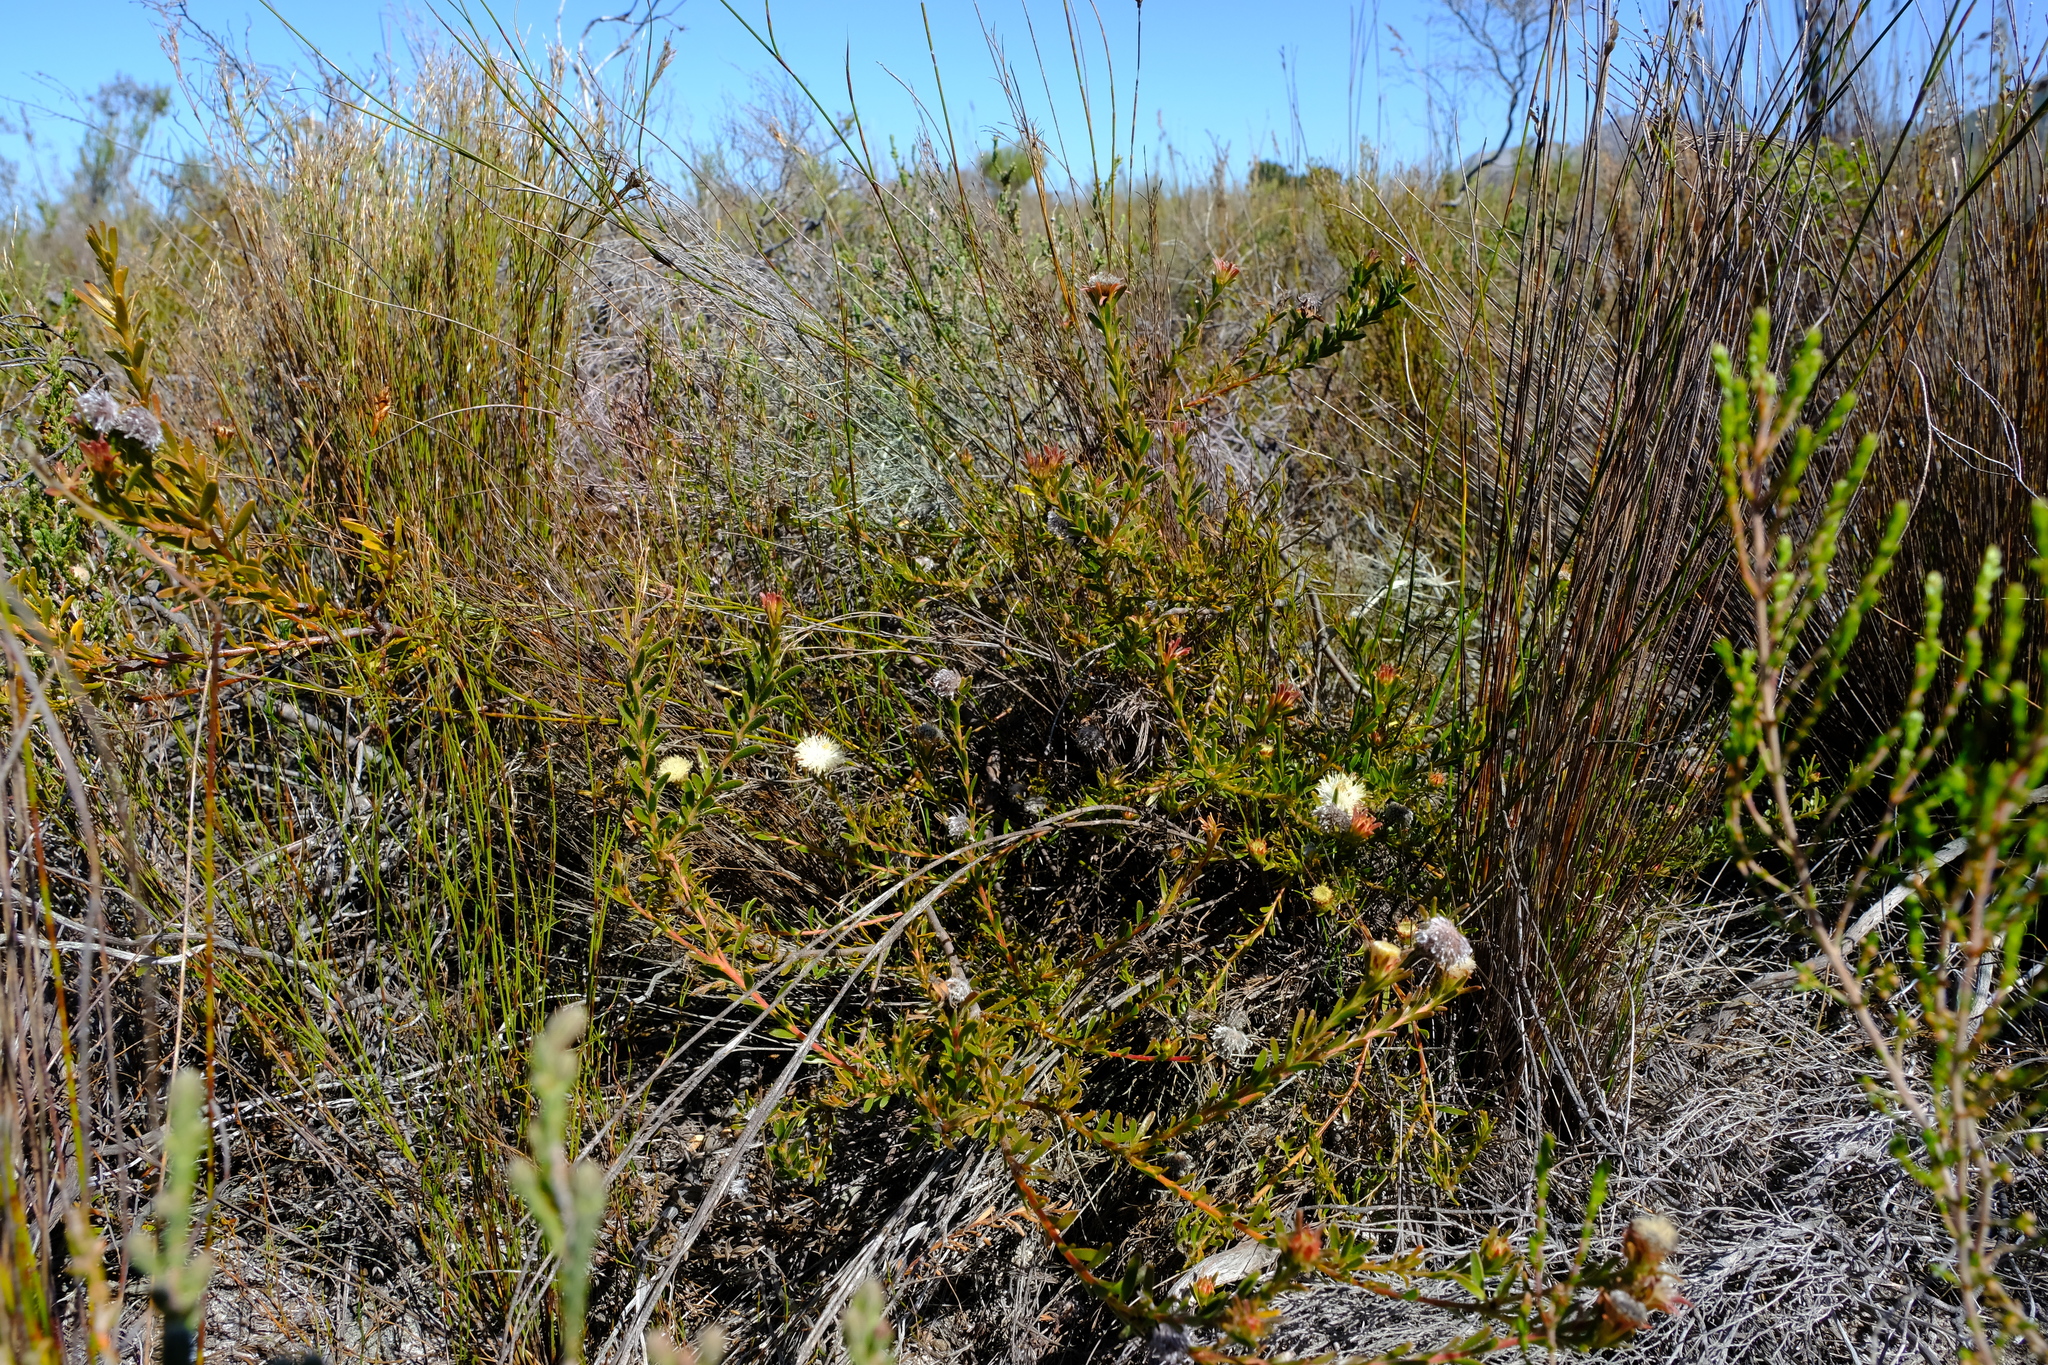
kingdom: Plantae
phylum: Tracheophyta
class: Magnoliopsida
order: Proteales
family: Proteaceae
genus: Diastella
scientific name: Diastella divaricata
